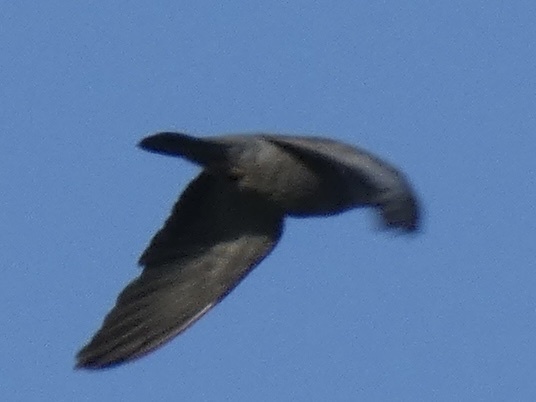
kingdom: Animalia
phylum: Chordata
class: Aves
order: Columbiformes
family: Columbidae
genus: Columba
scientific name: Columba oenas
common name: Stock dove
